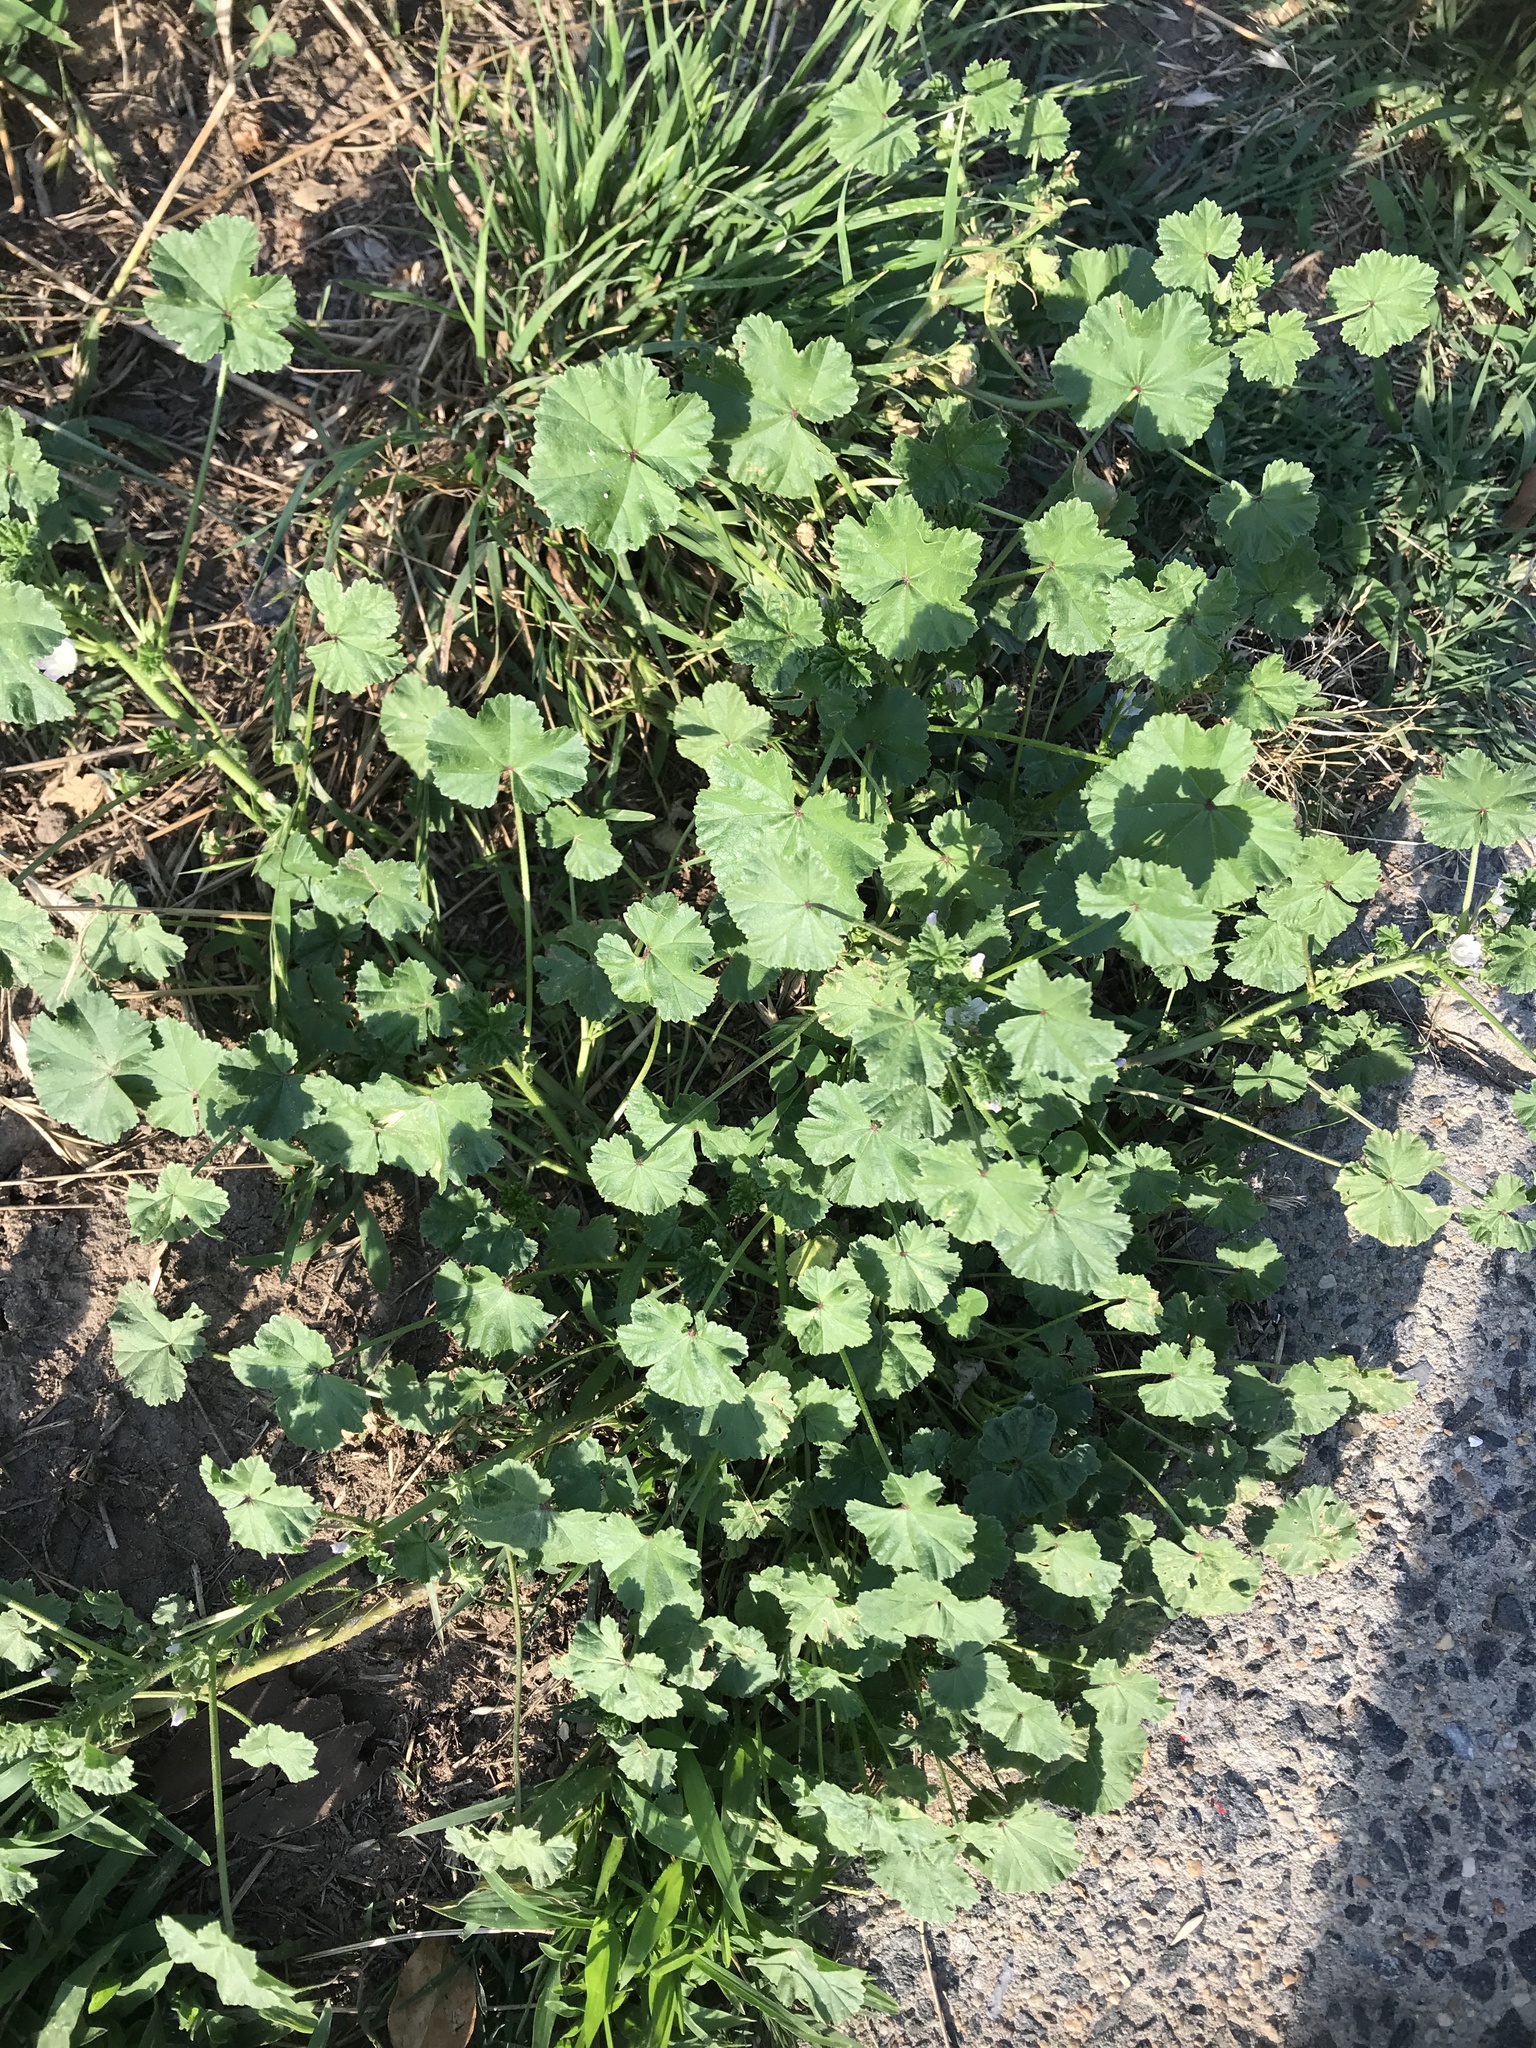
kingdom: Plantae
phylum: Tracheophyta
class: Magnoliopsida
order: Malvales
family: Malvaceae
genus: Malva
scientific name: Malva neglecta
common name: Common mallow
